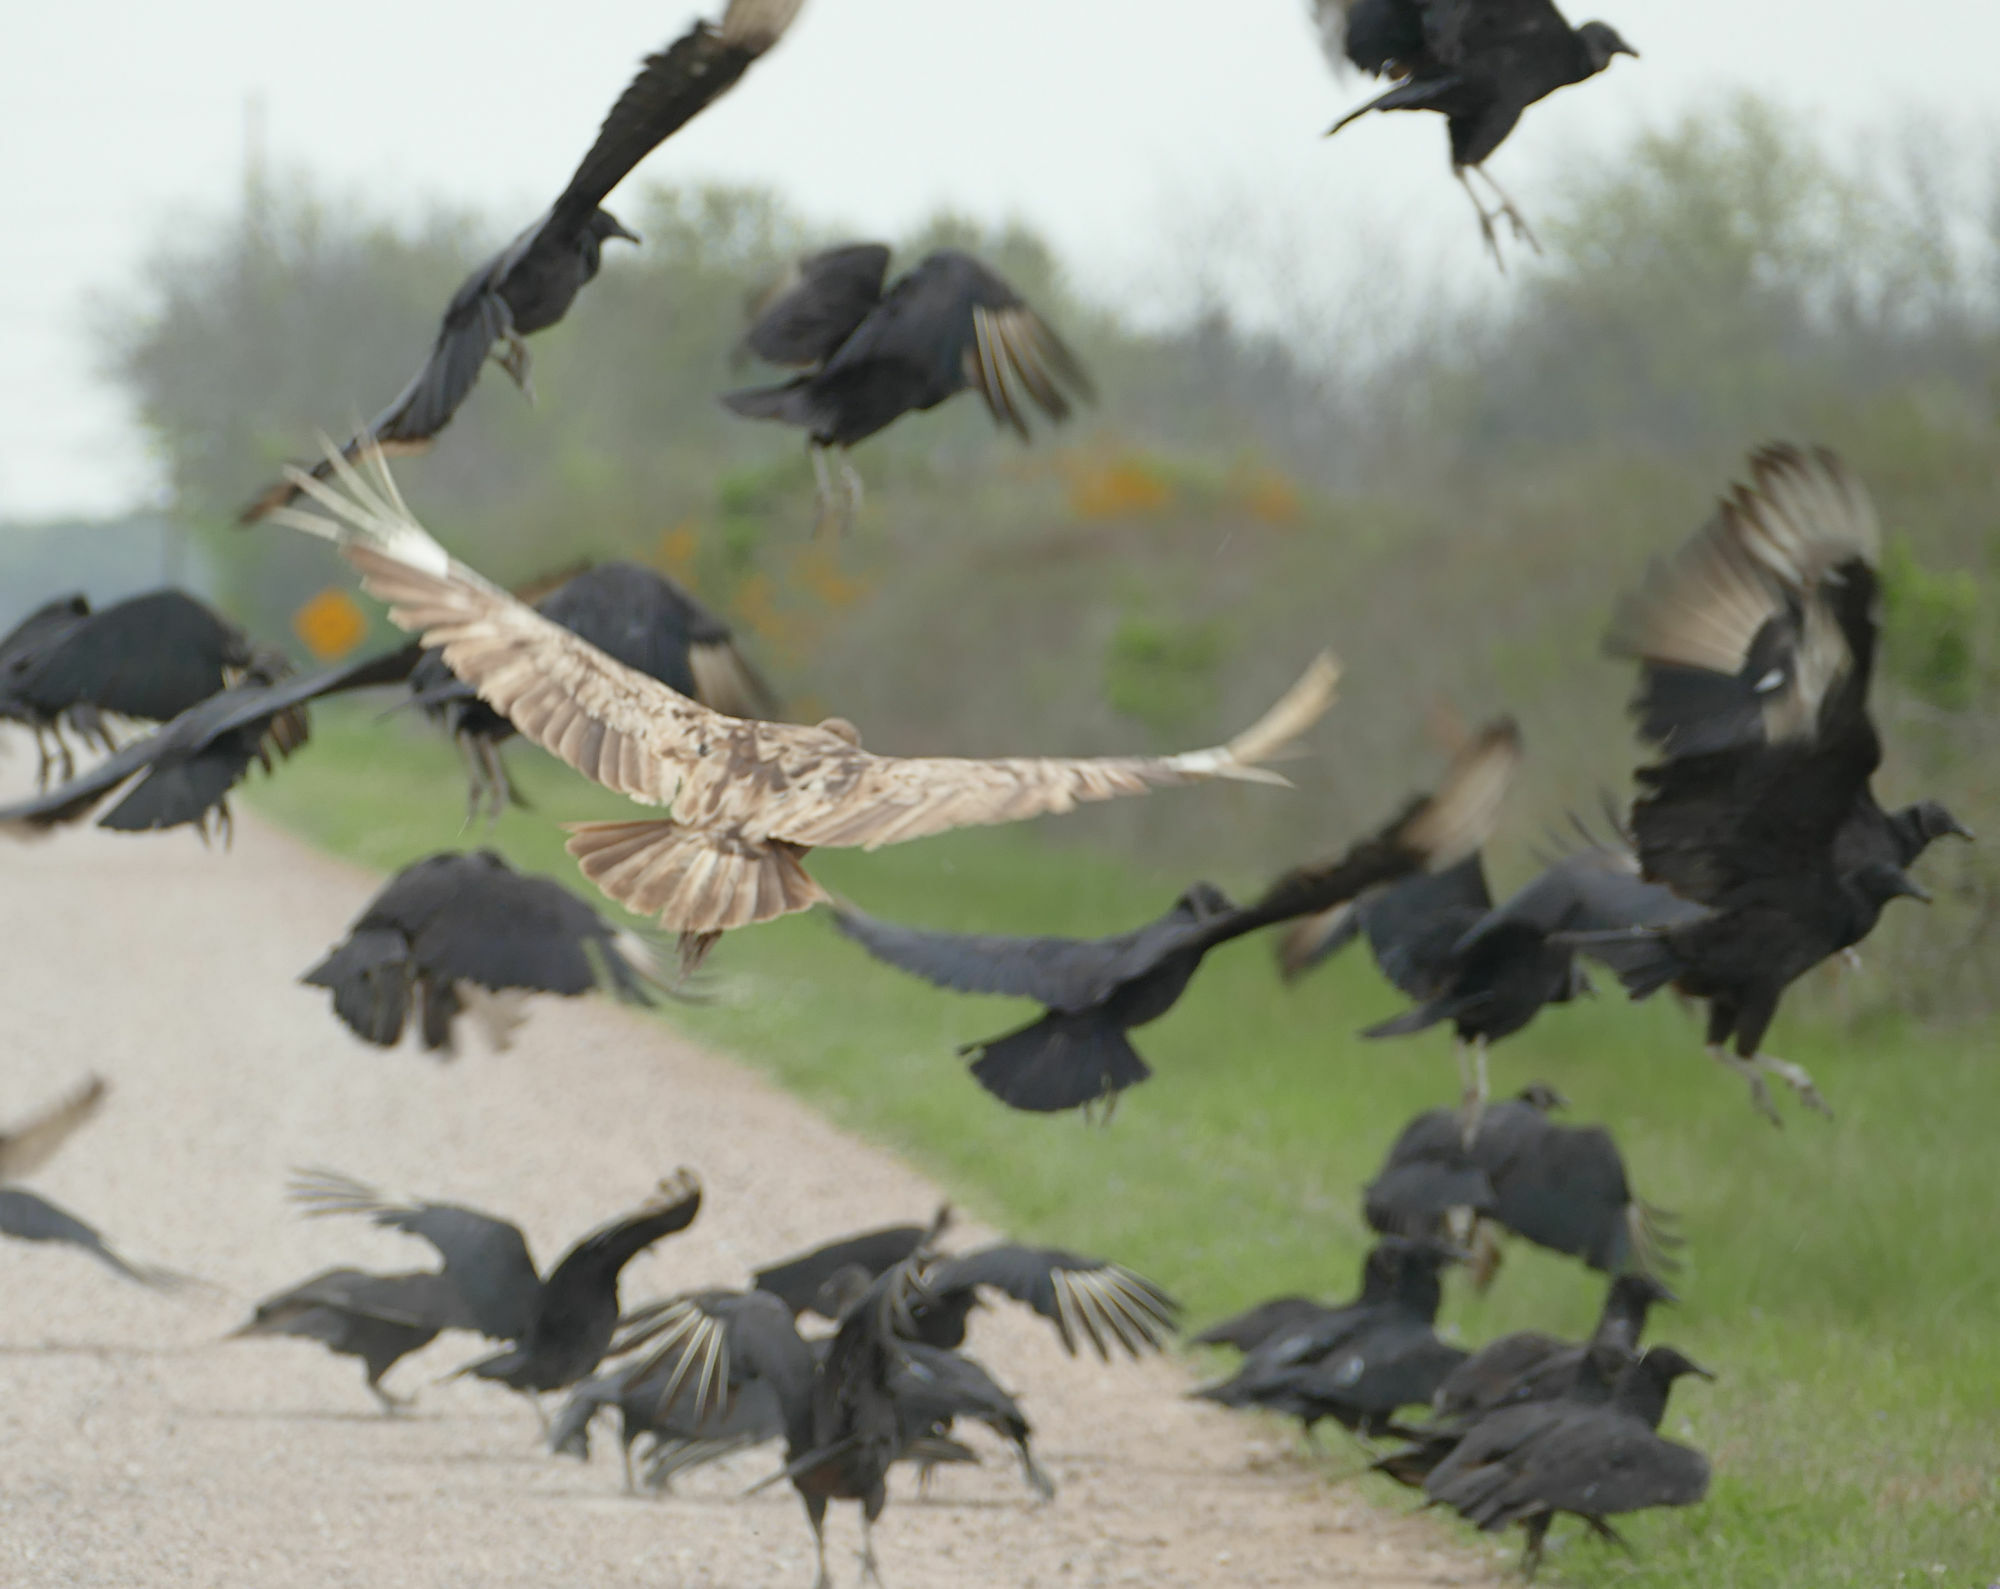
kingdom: Animalia
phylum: Chordata
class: Aves
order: Accipitriformes
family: Cathartidae
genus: Coragyps
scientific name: Coragyps atratus
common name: Black vulture
